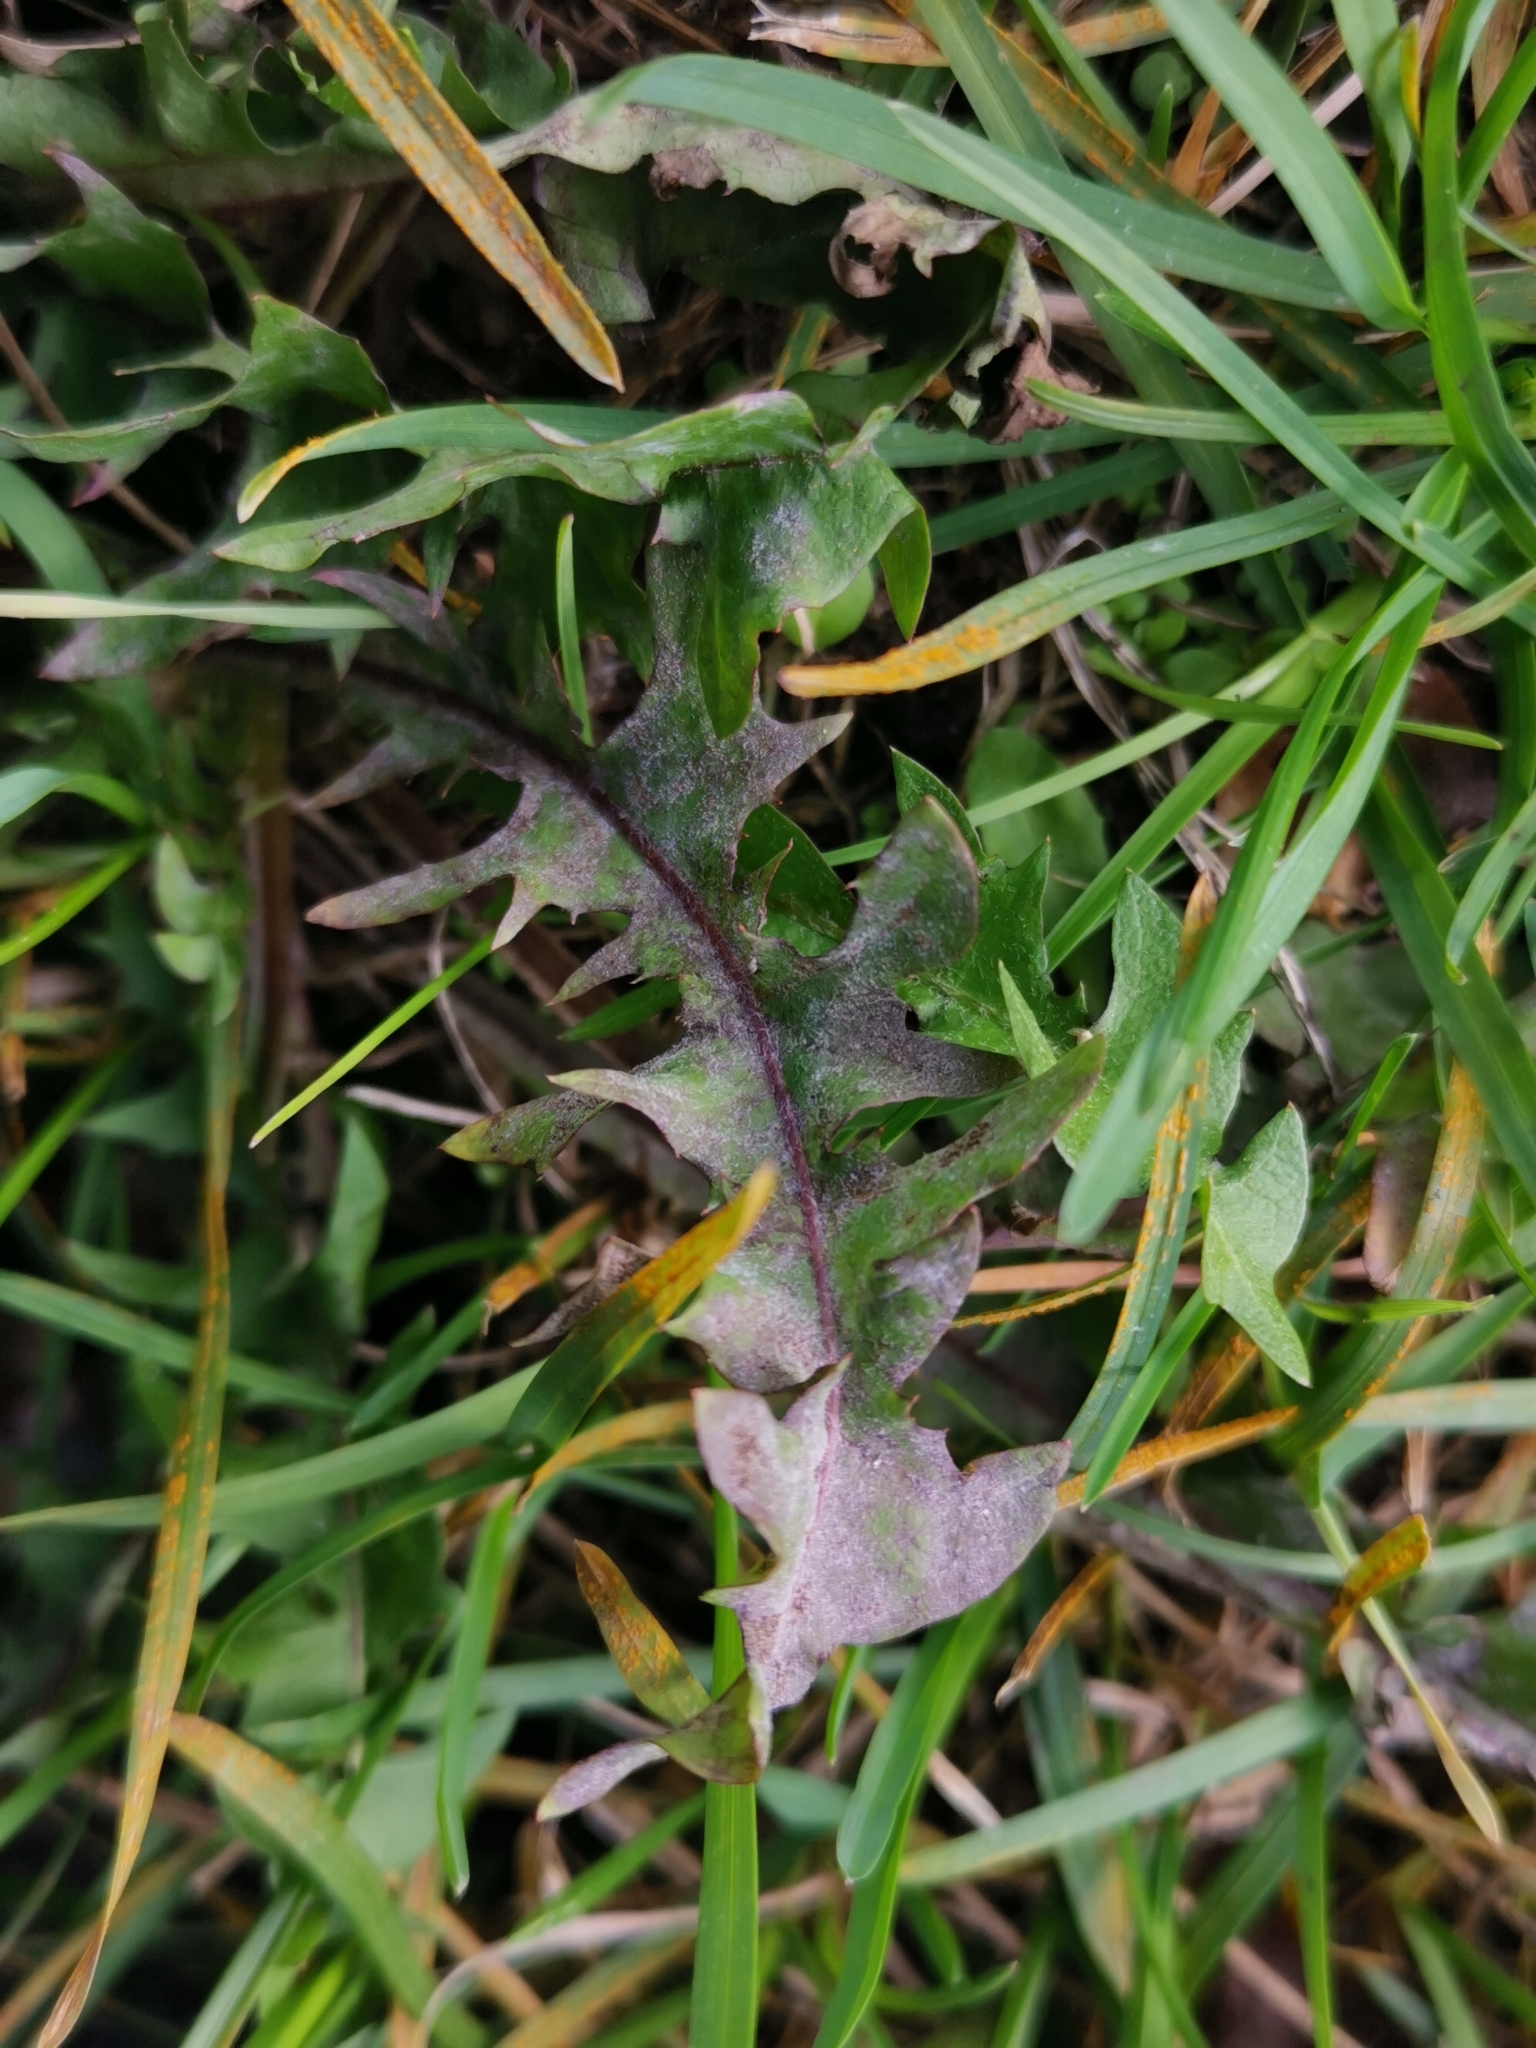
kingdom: Fungi
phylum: Ascomycota
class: Leotiomycetes
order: Helotiales
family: Erysiphaceae
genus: Podosphaera
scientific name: Podosphaera erigerontis-canadensis
